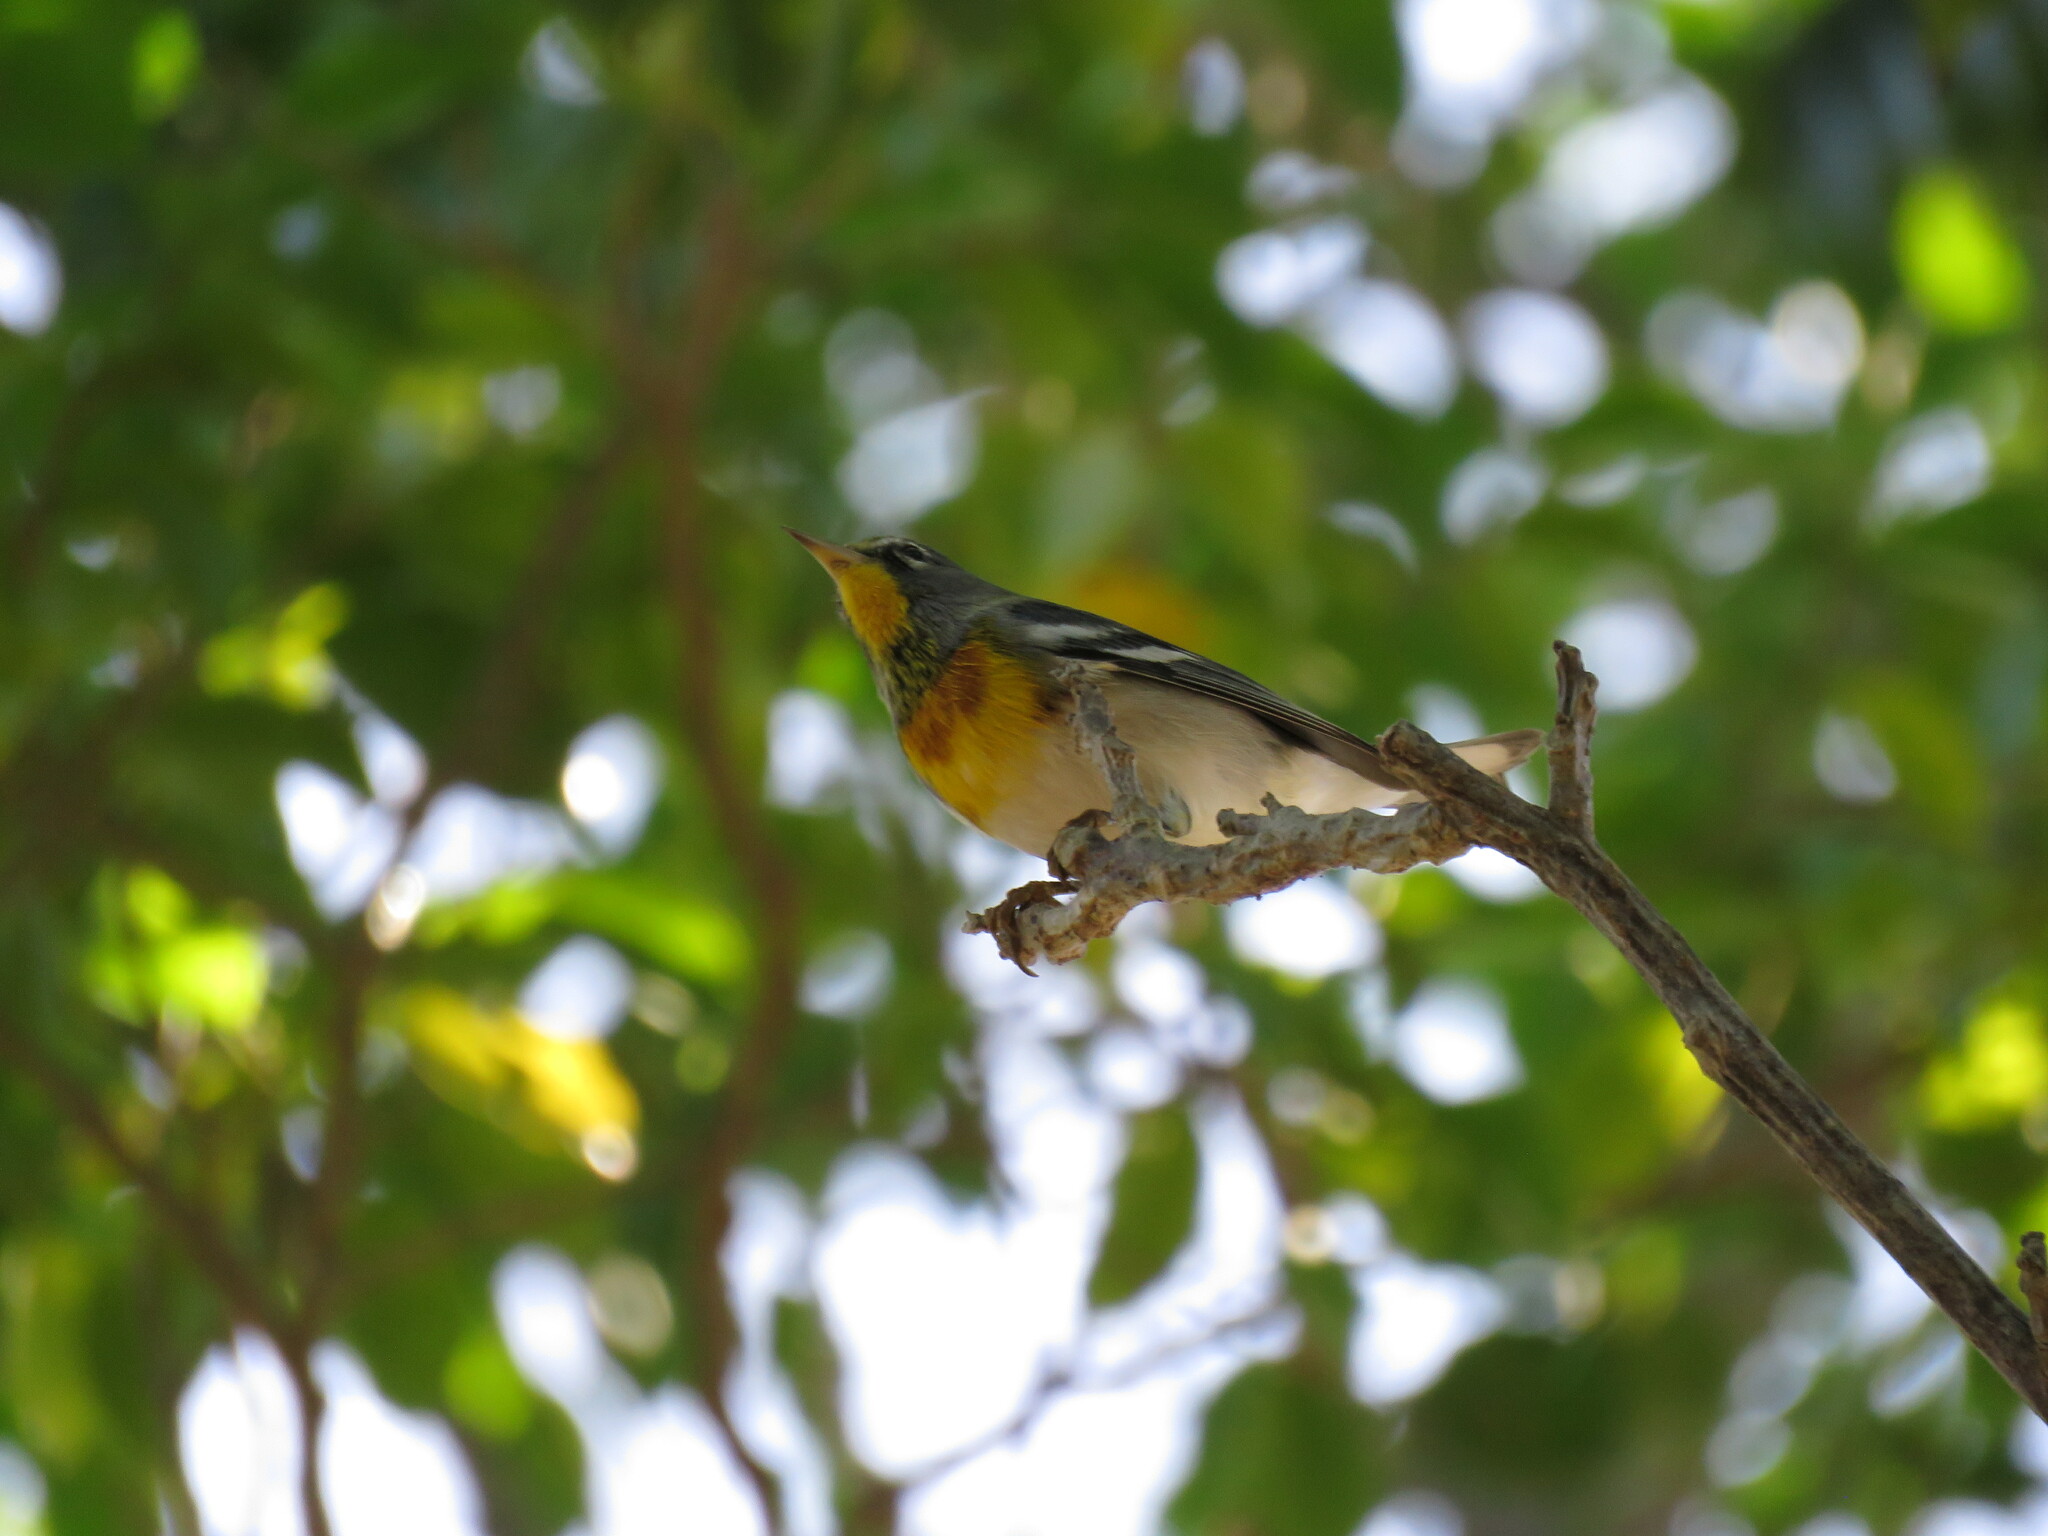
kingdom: Animalia
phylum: Chordata
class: Aves
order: Passeriformes
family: Parulidae
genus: Setophaga
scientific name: Setophaga americana
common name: Northern parula
